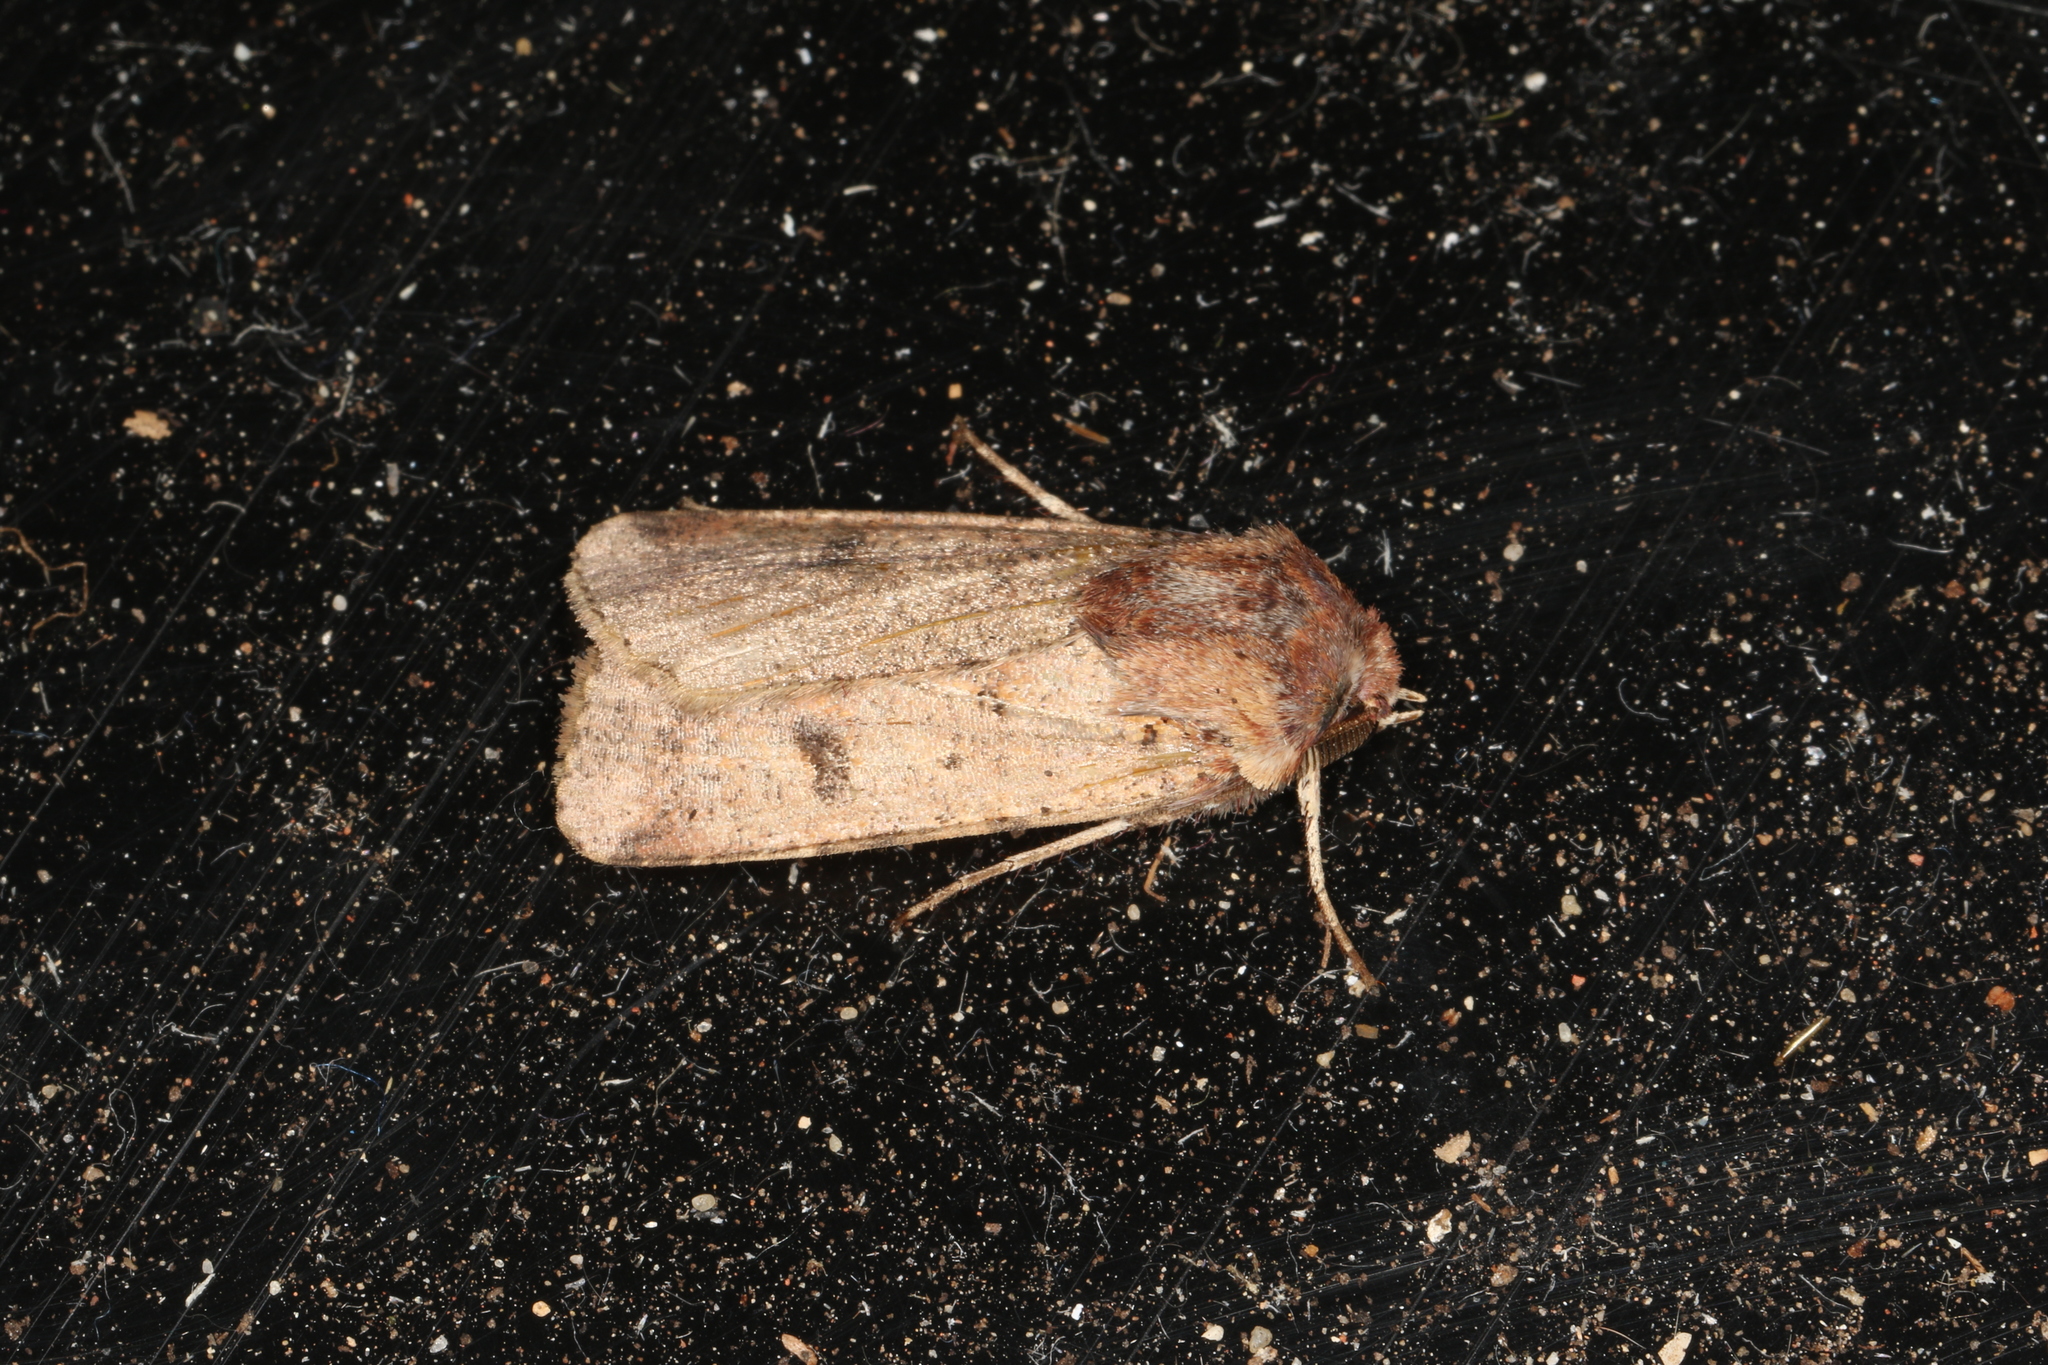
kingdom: Animalia
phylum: Arthropoda
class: Insecta
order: Lepidoptera
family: Noctuidae
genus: Agrotis
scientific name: Agrotis porphyricollis
